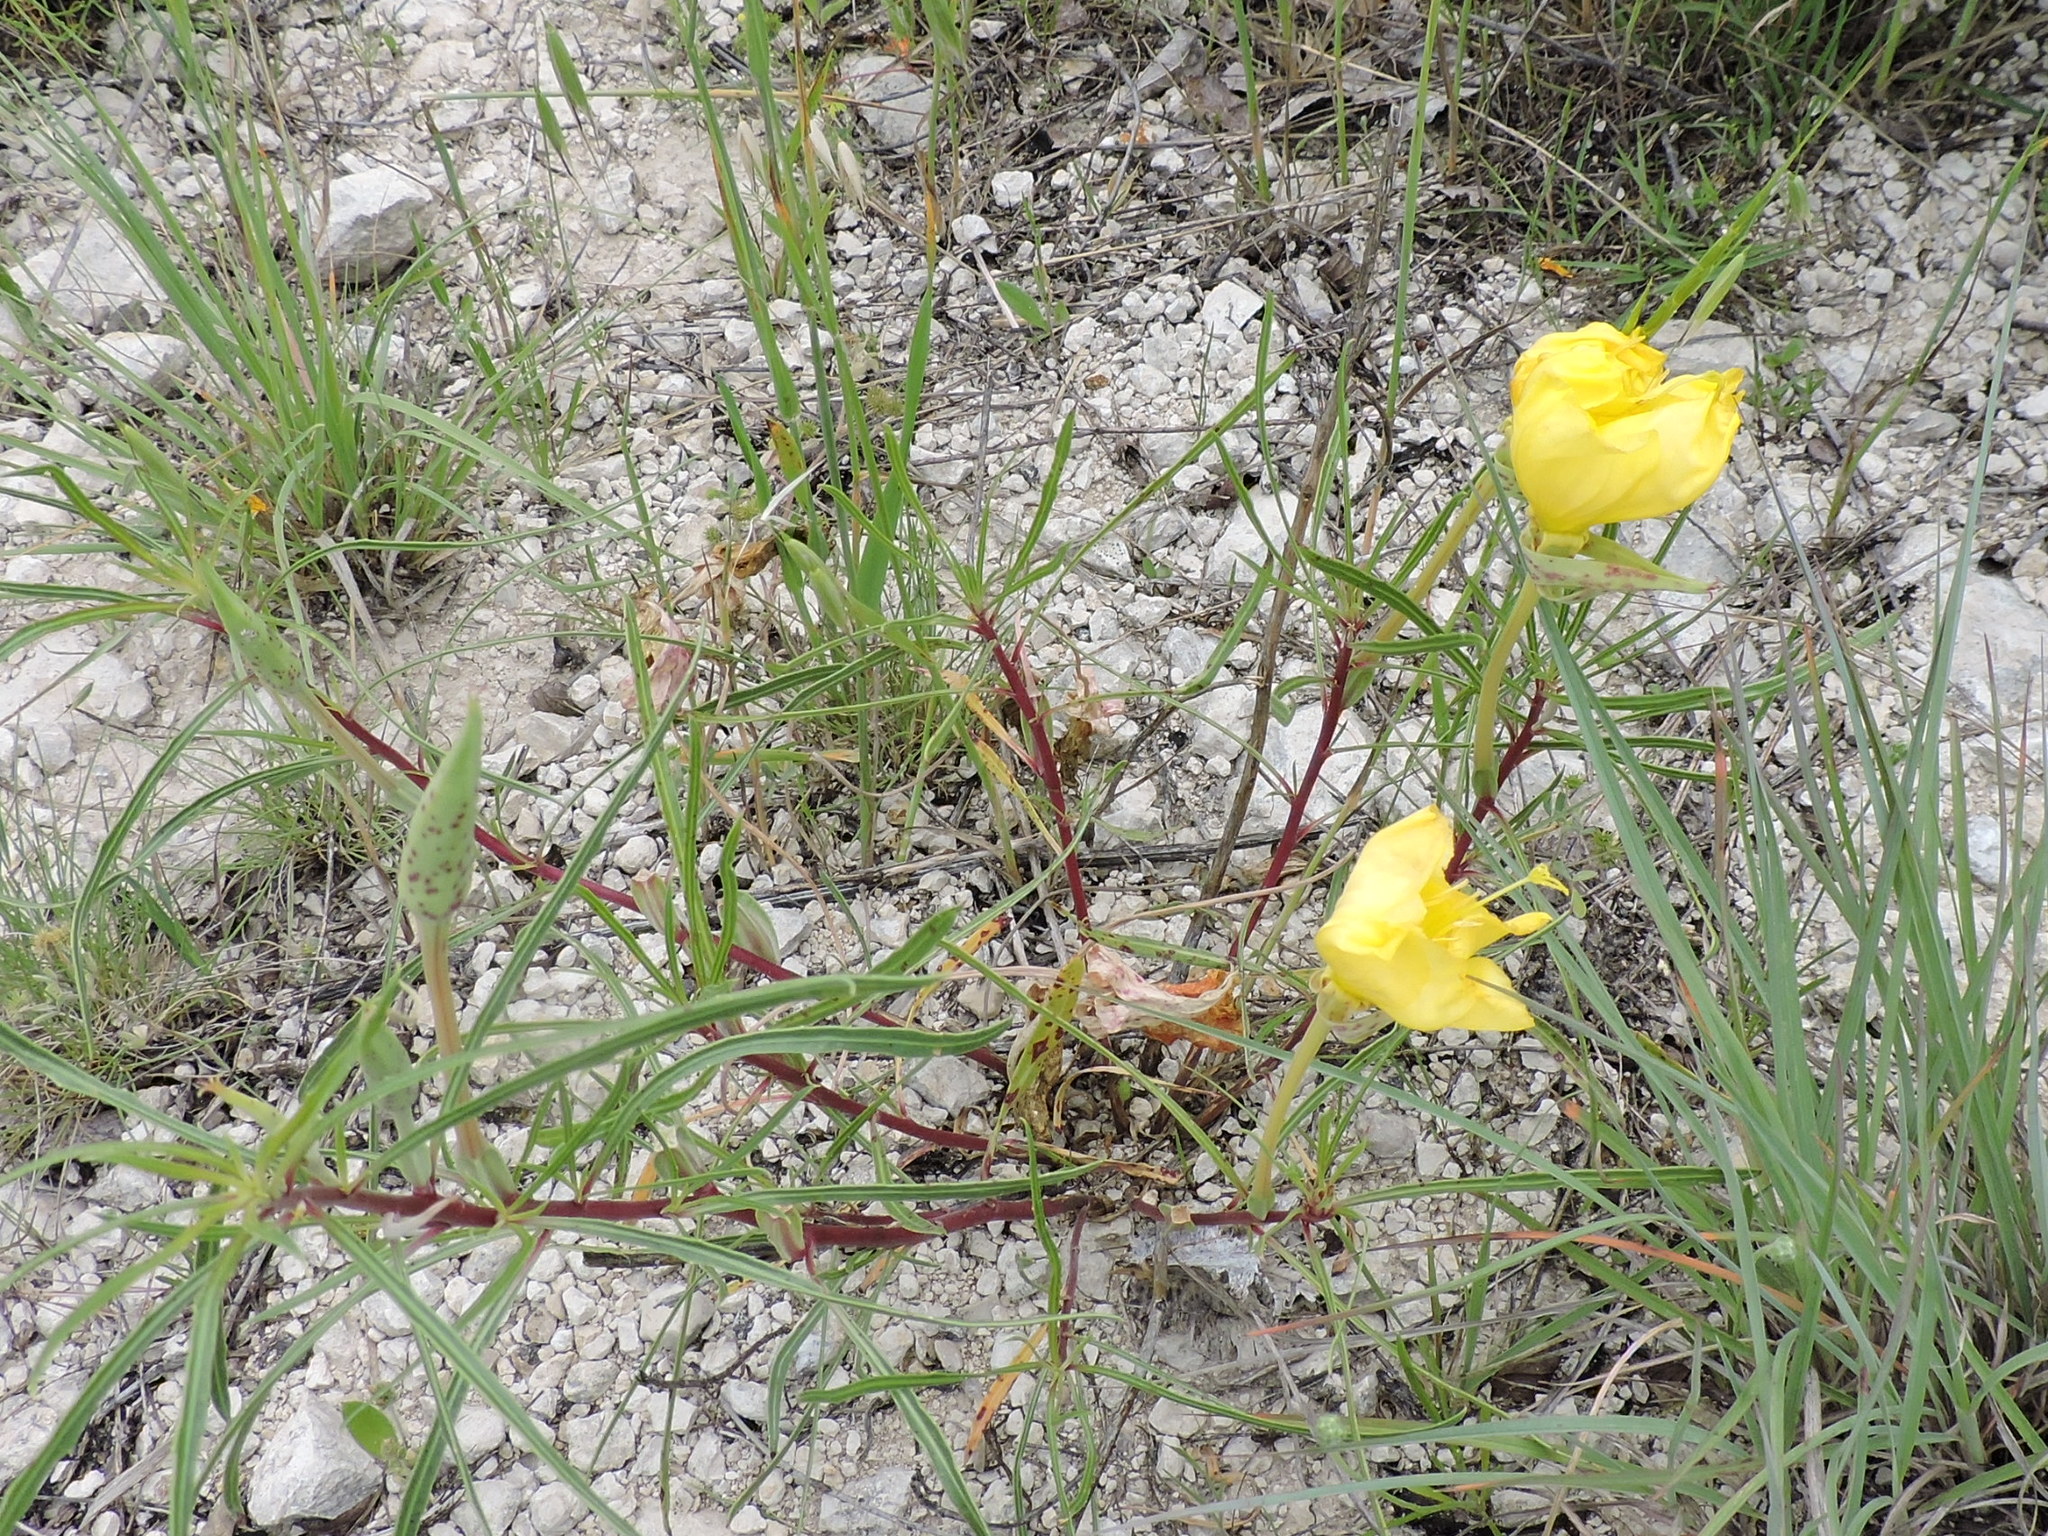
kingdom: Plantae
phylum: Tracheophyta
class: Magnoliopsida
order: Myrtales
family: Onagraceae
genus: Oenothera
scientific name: Oenothera macrocarpa
